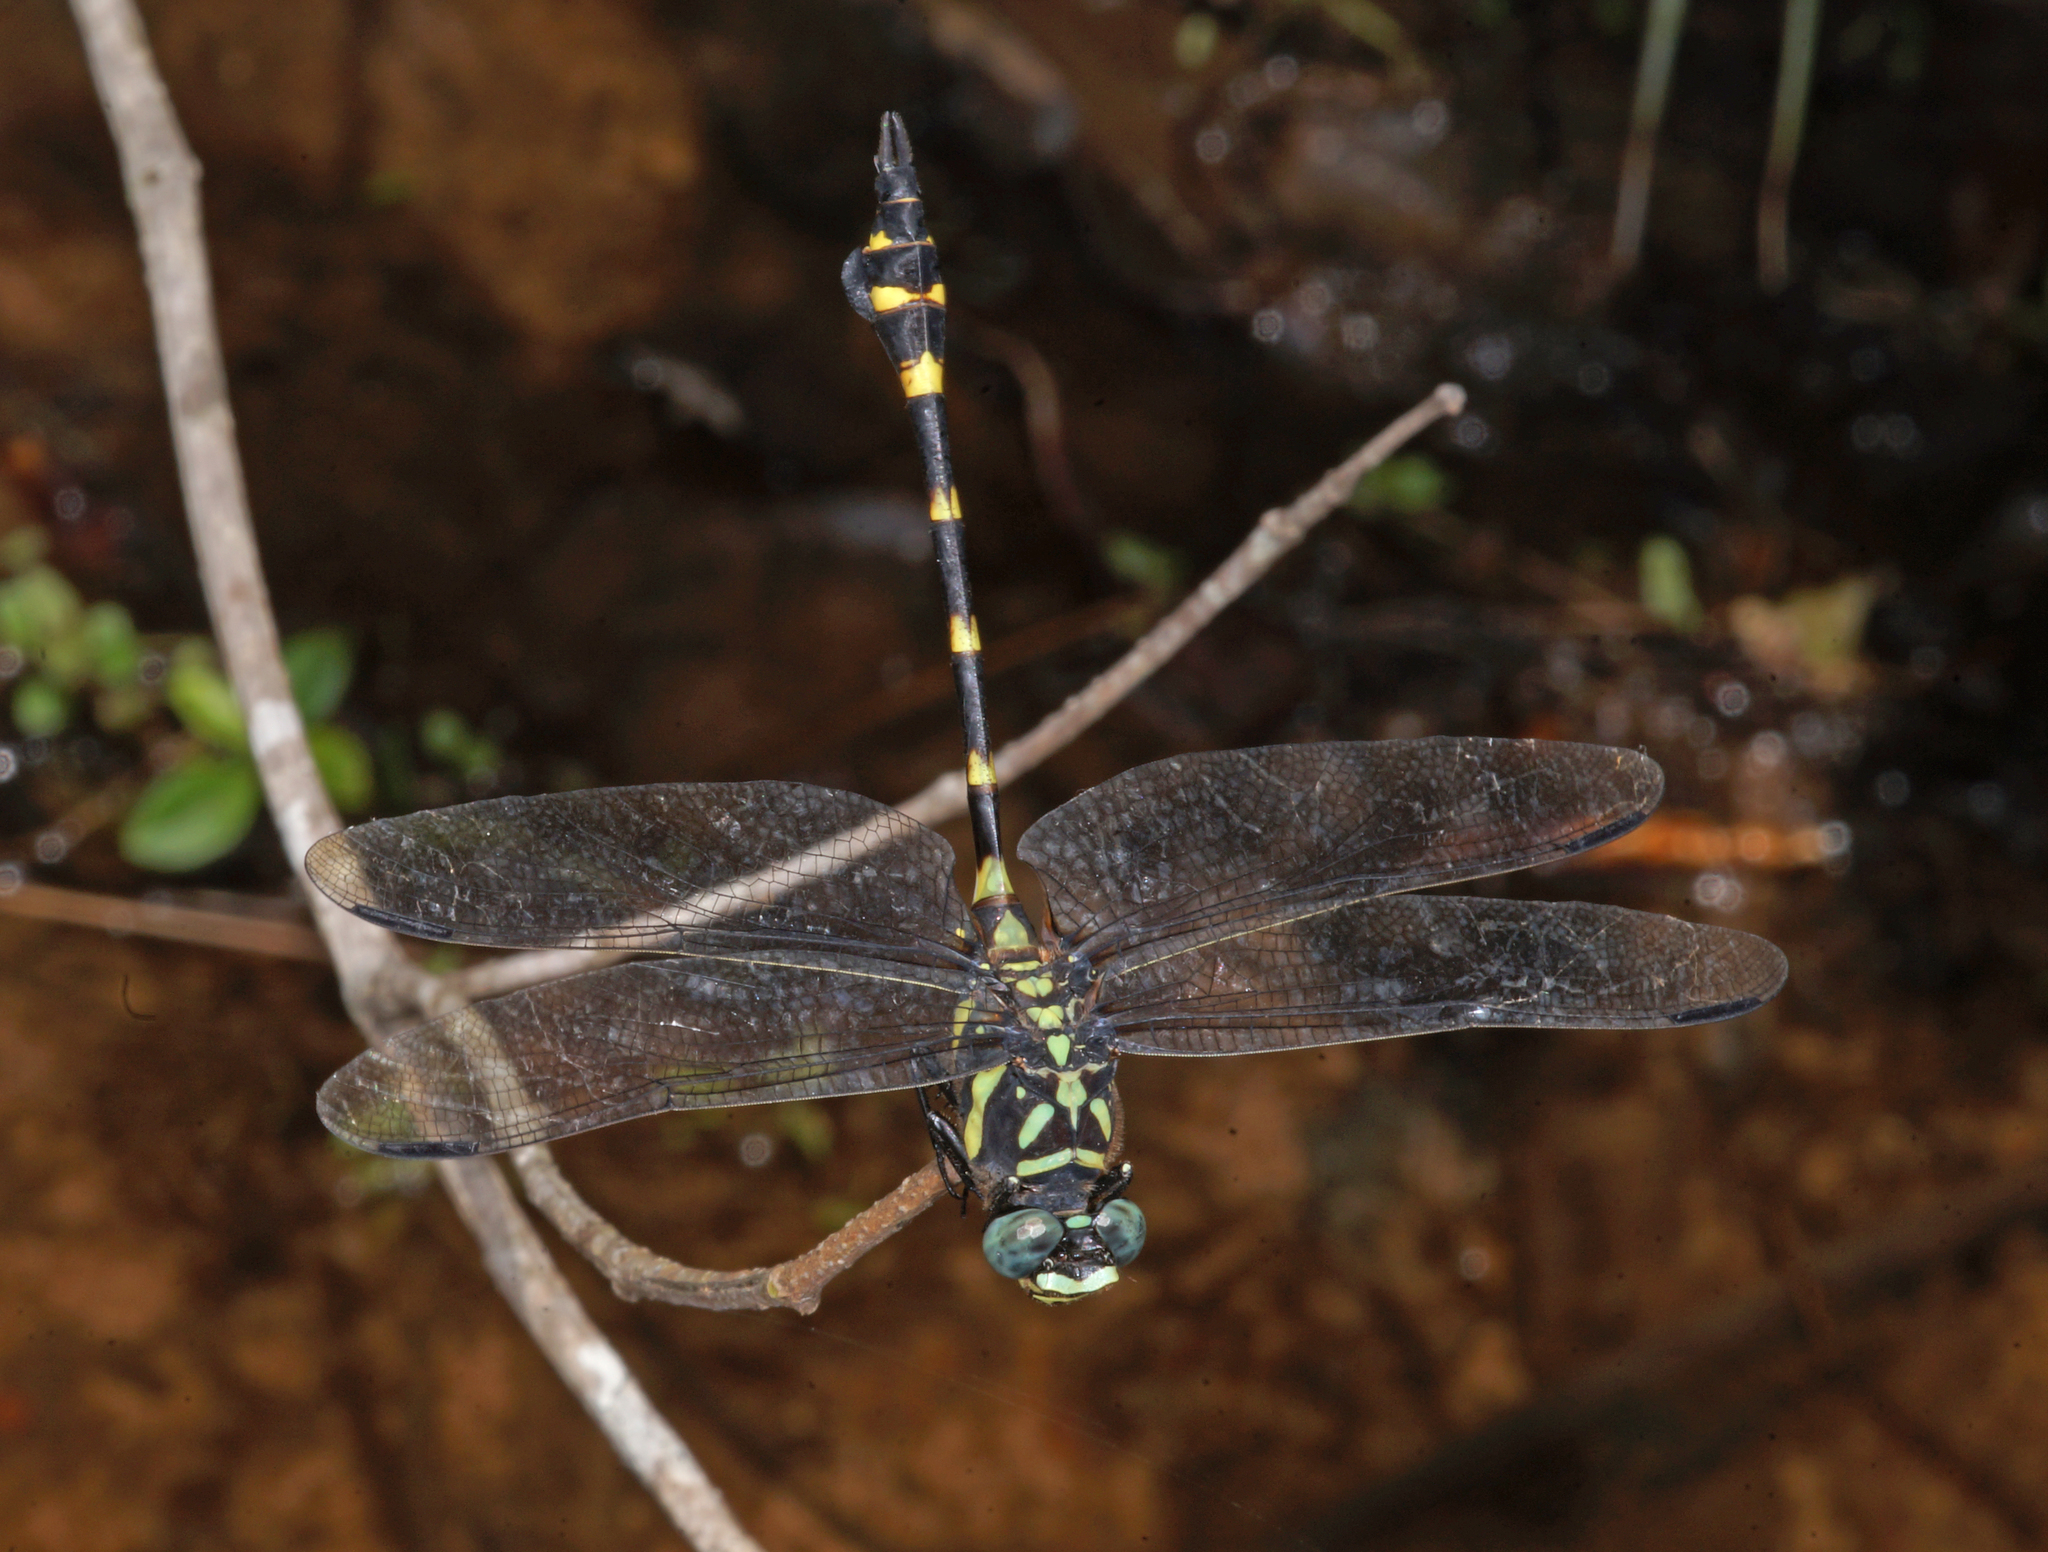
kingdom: Animalia
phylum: Arthropoda
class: Insecta
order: Odonata
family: Gomphidae
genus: Ictinogomphus
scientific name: Ictinogomphus decoratus
